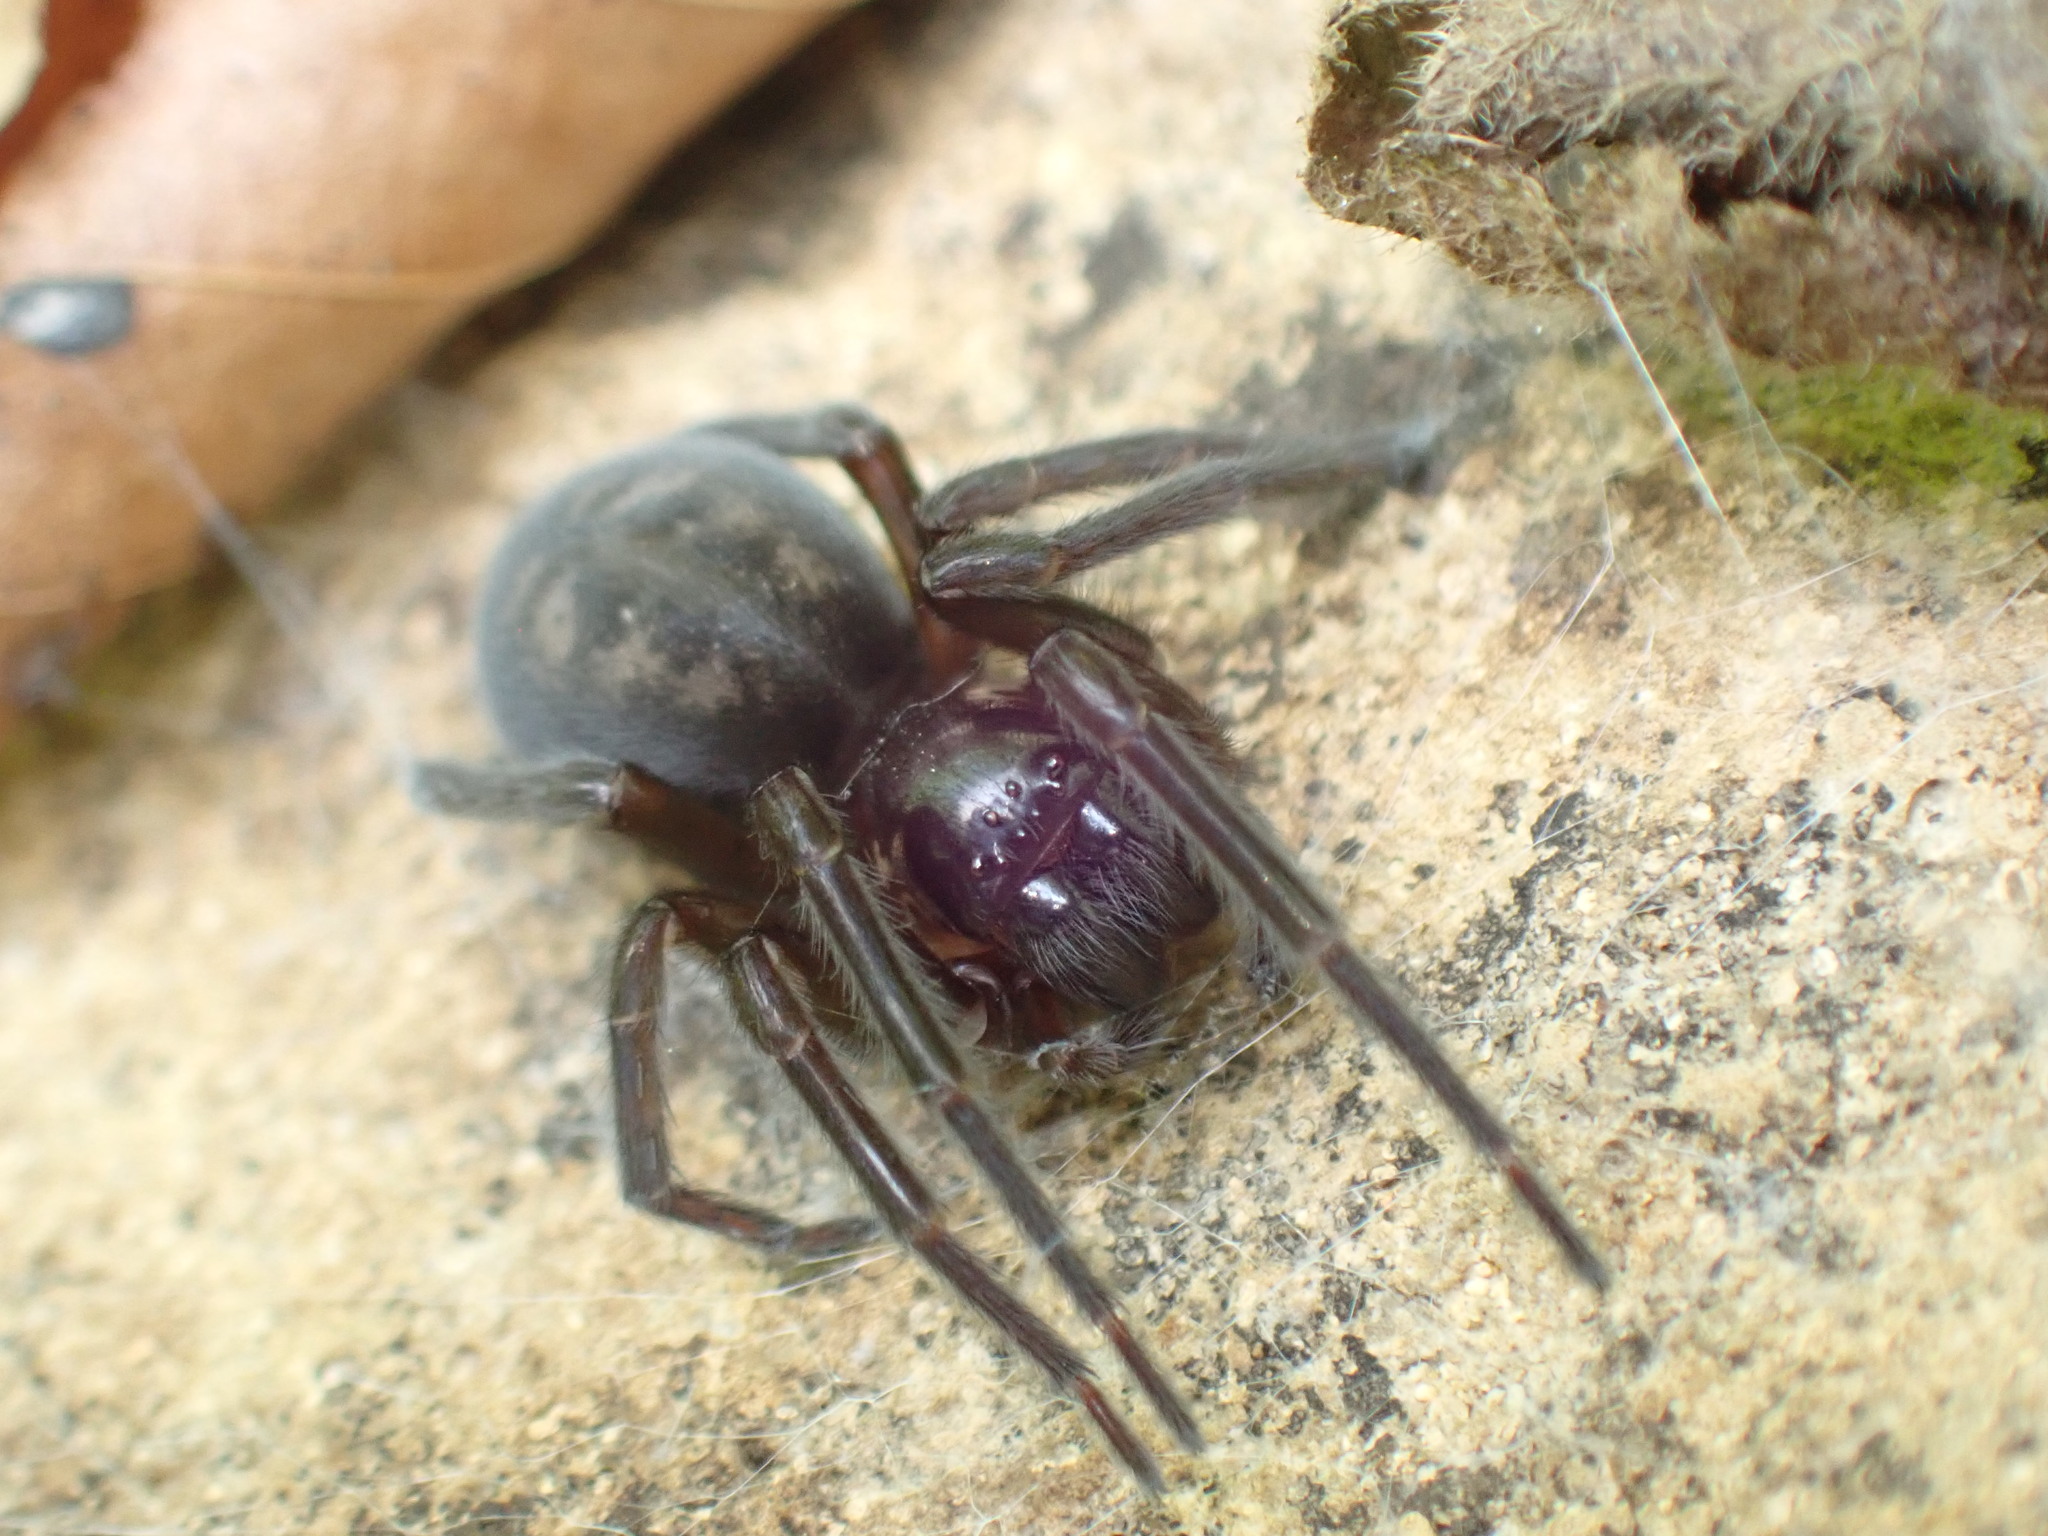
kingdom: Animalia
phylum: Arthropoda
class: Arachnida
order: Araneae
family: Amaurobiidae
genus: Amaurobius
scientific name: Amaurobius ferox
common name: Black laceweaver
